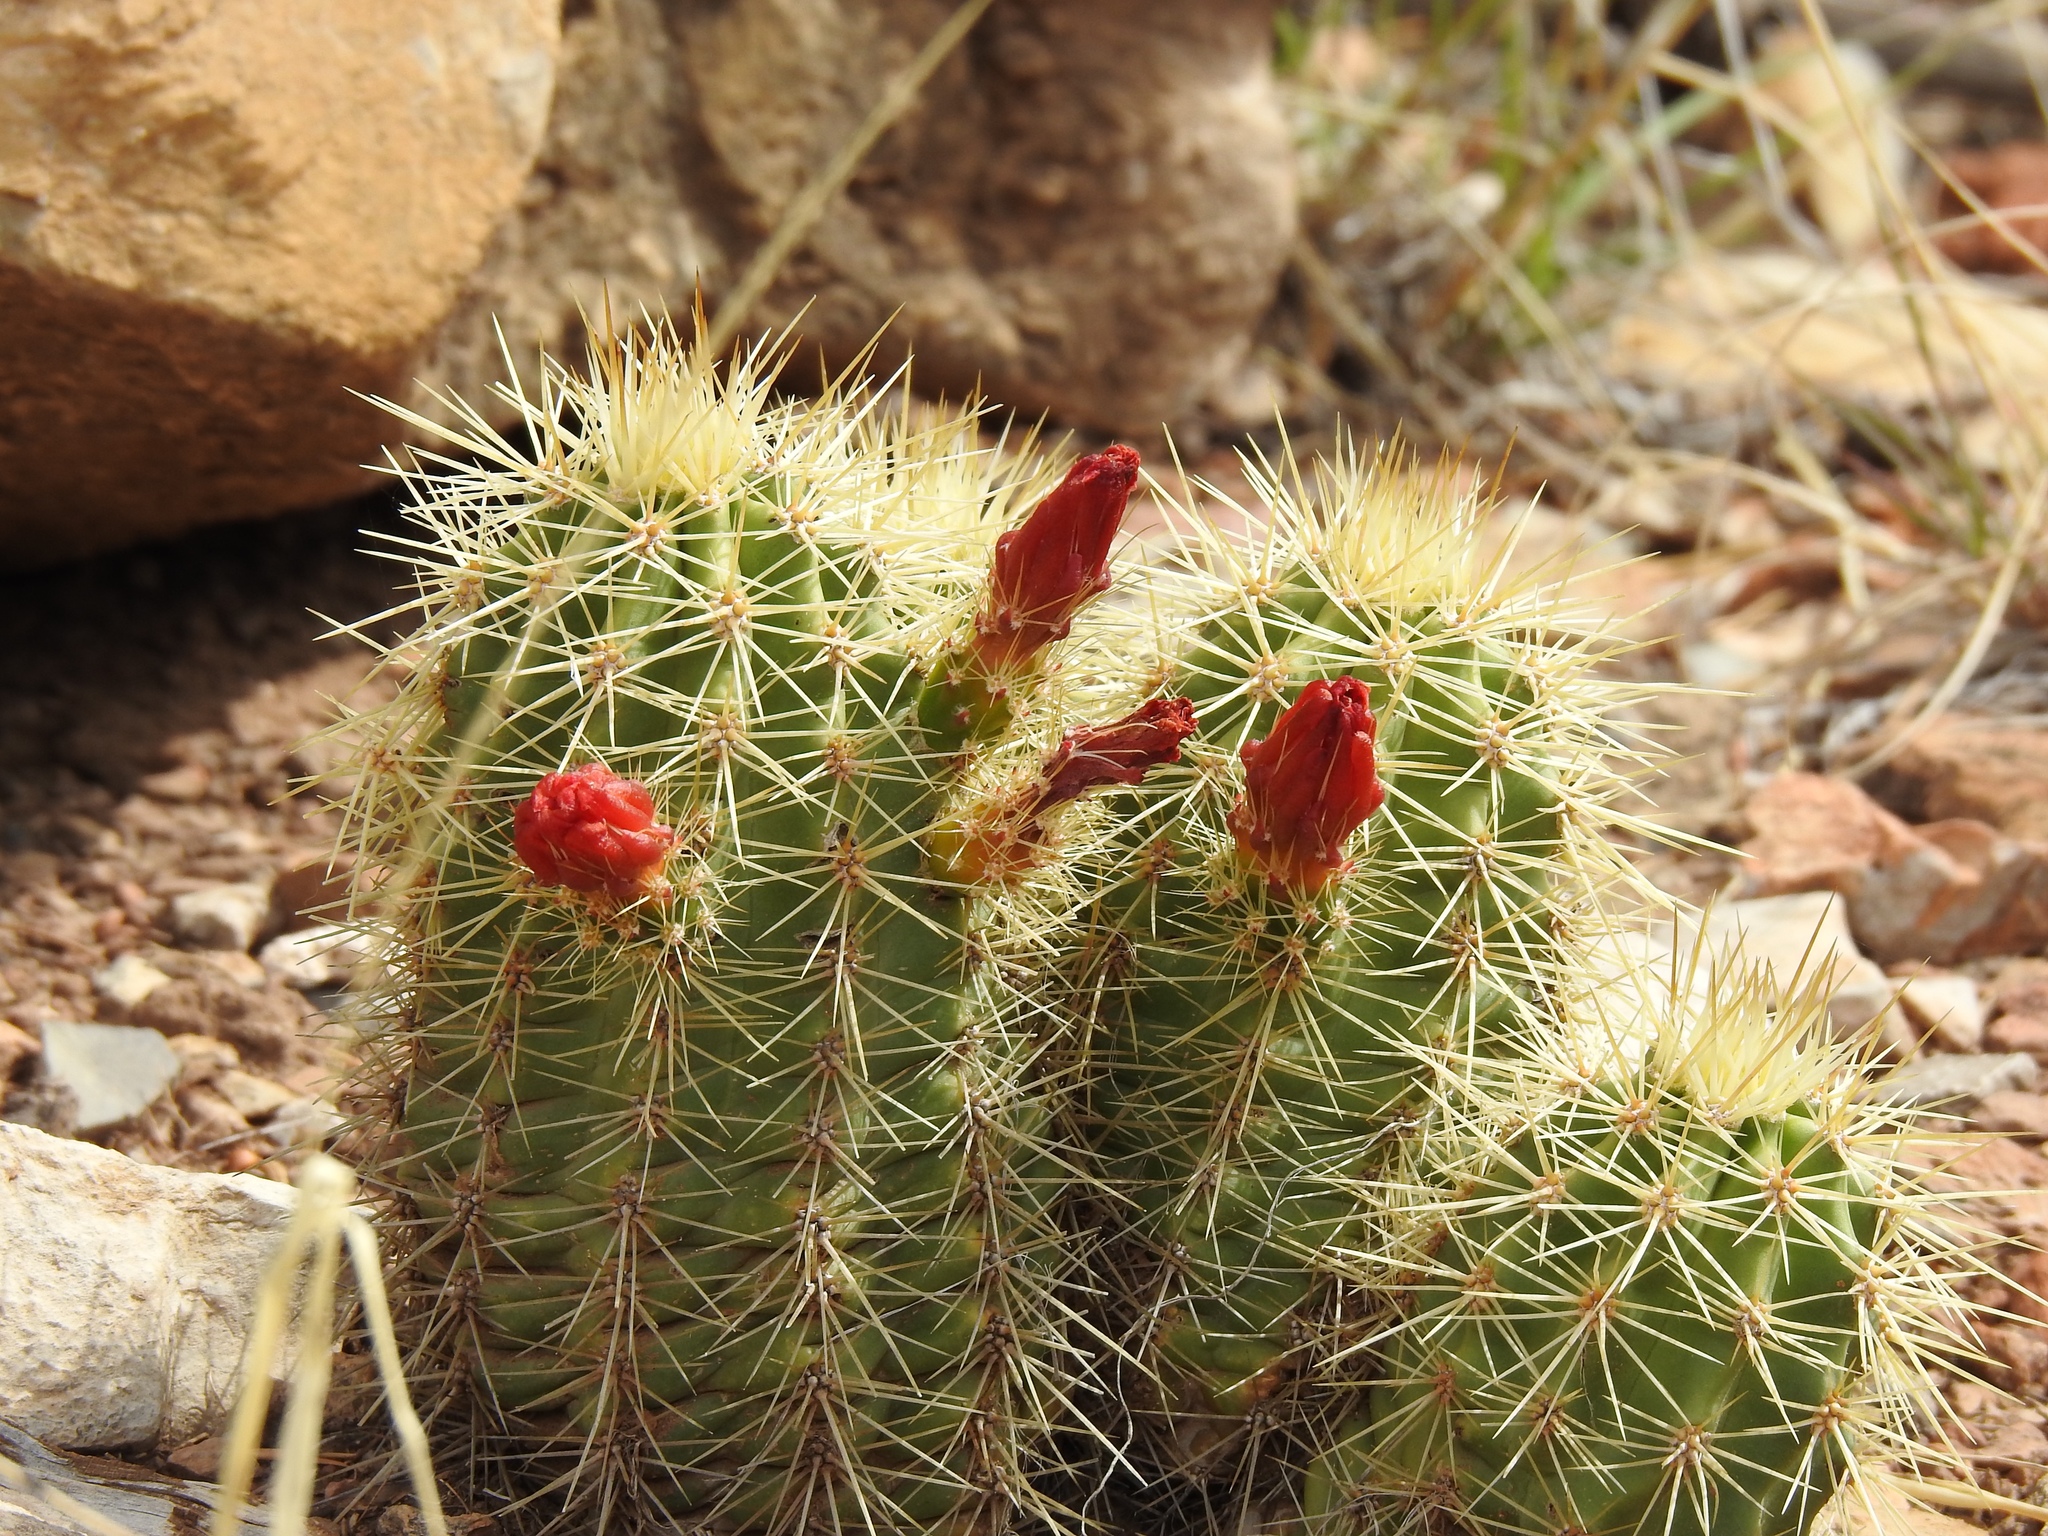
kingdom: Plantae
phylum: Tracheophyta
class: Magnoliopsida
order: Caryophyllales
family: Cactaceae
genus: Echinocereus
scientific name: Echinocereus coccineus
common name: Scarlet hedgehog cactus
